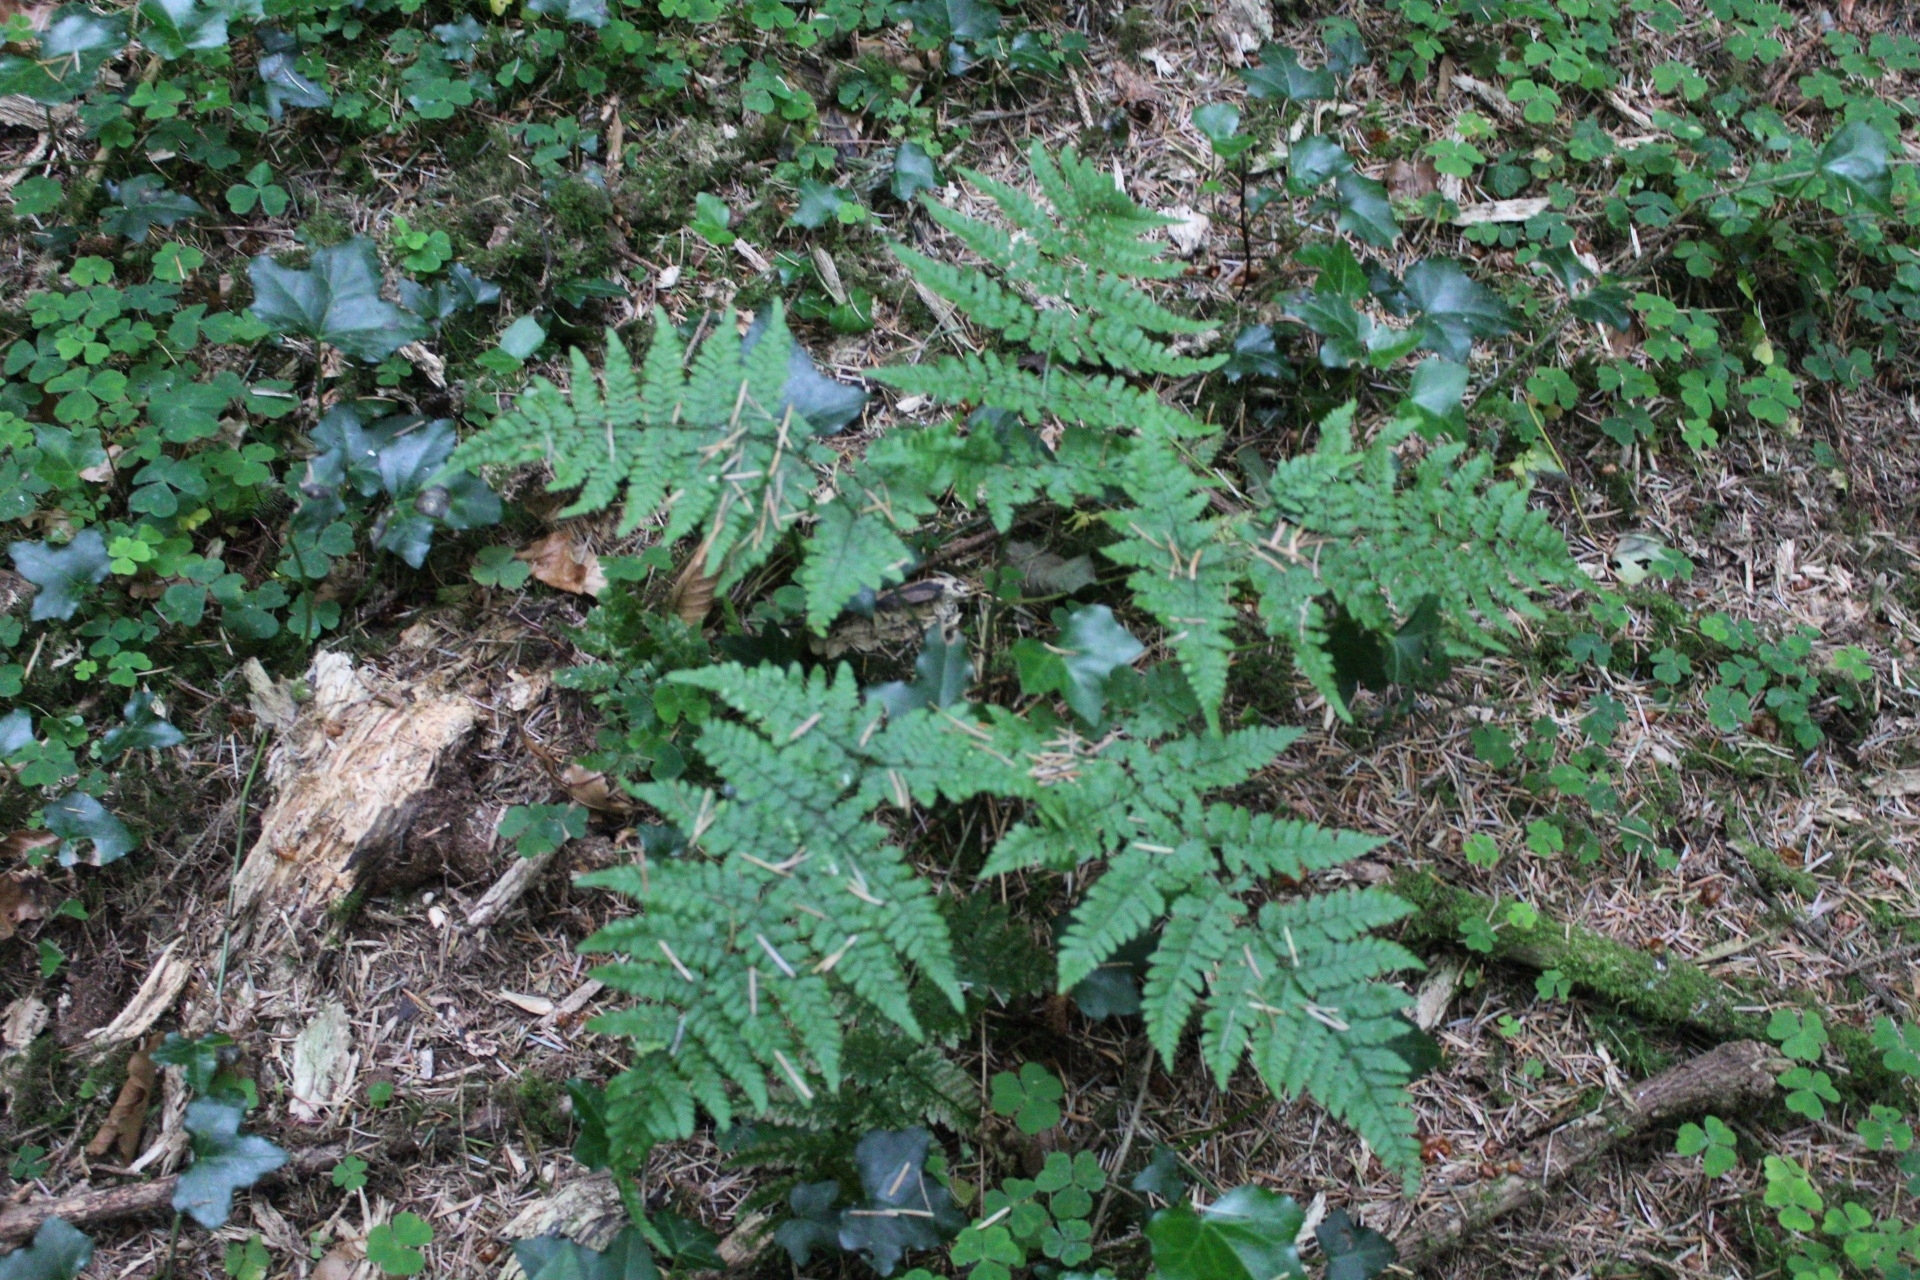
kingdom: Plantae
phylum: Tracheophyta
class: Polypodiopsida
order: Polypodiales
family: Dryopteridaceae
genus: Dryopteris
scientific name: Dryopteris dilatata
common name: Broad buckler-fern
